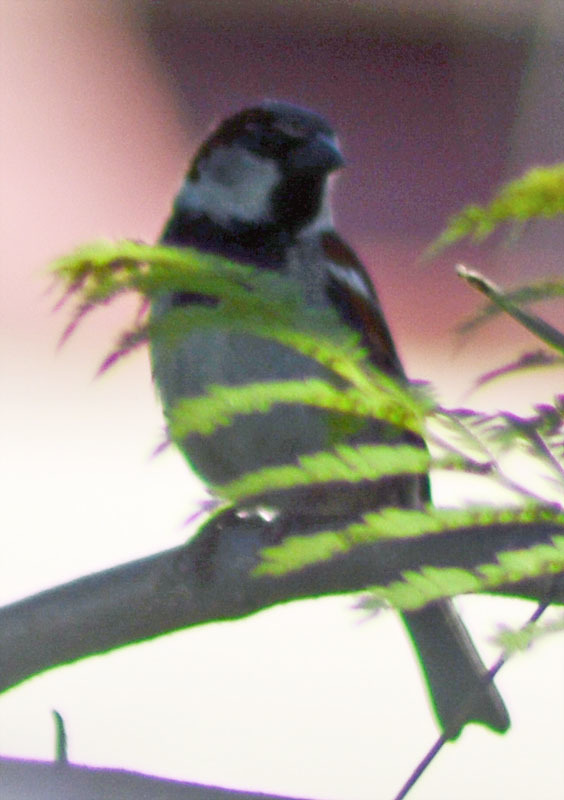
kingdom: Animalia
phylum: Chordata
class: Aves
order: Passeriformes
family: Passeridae
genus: Passer
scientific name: Passer domesticus
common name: House sparrow
